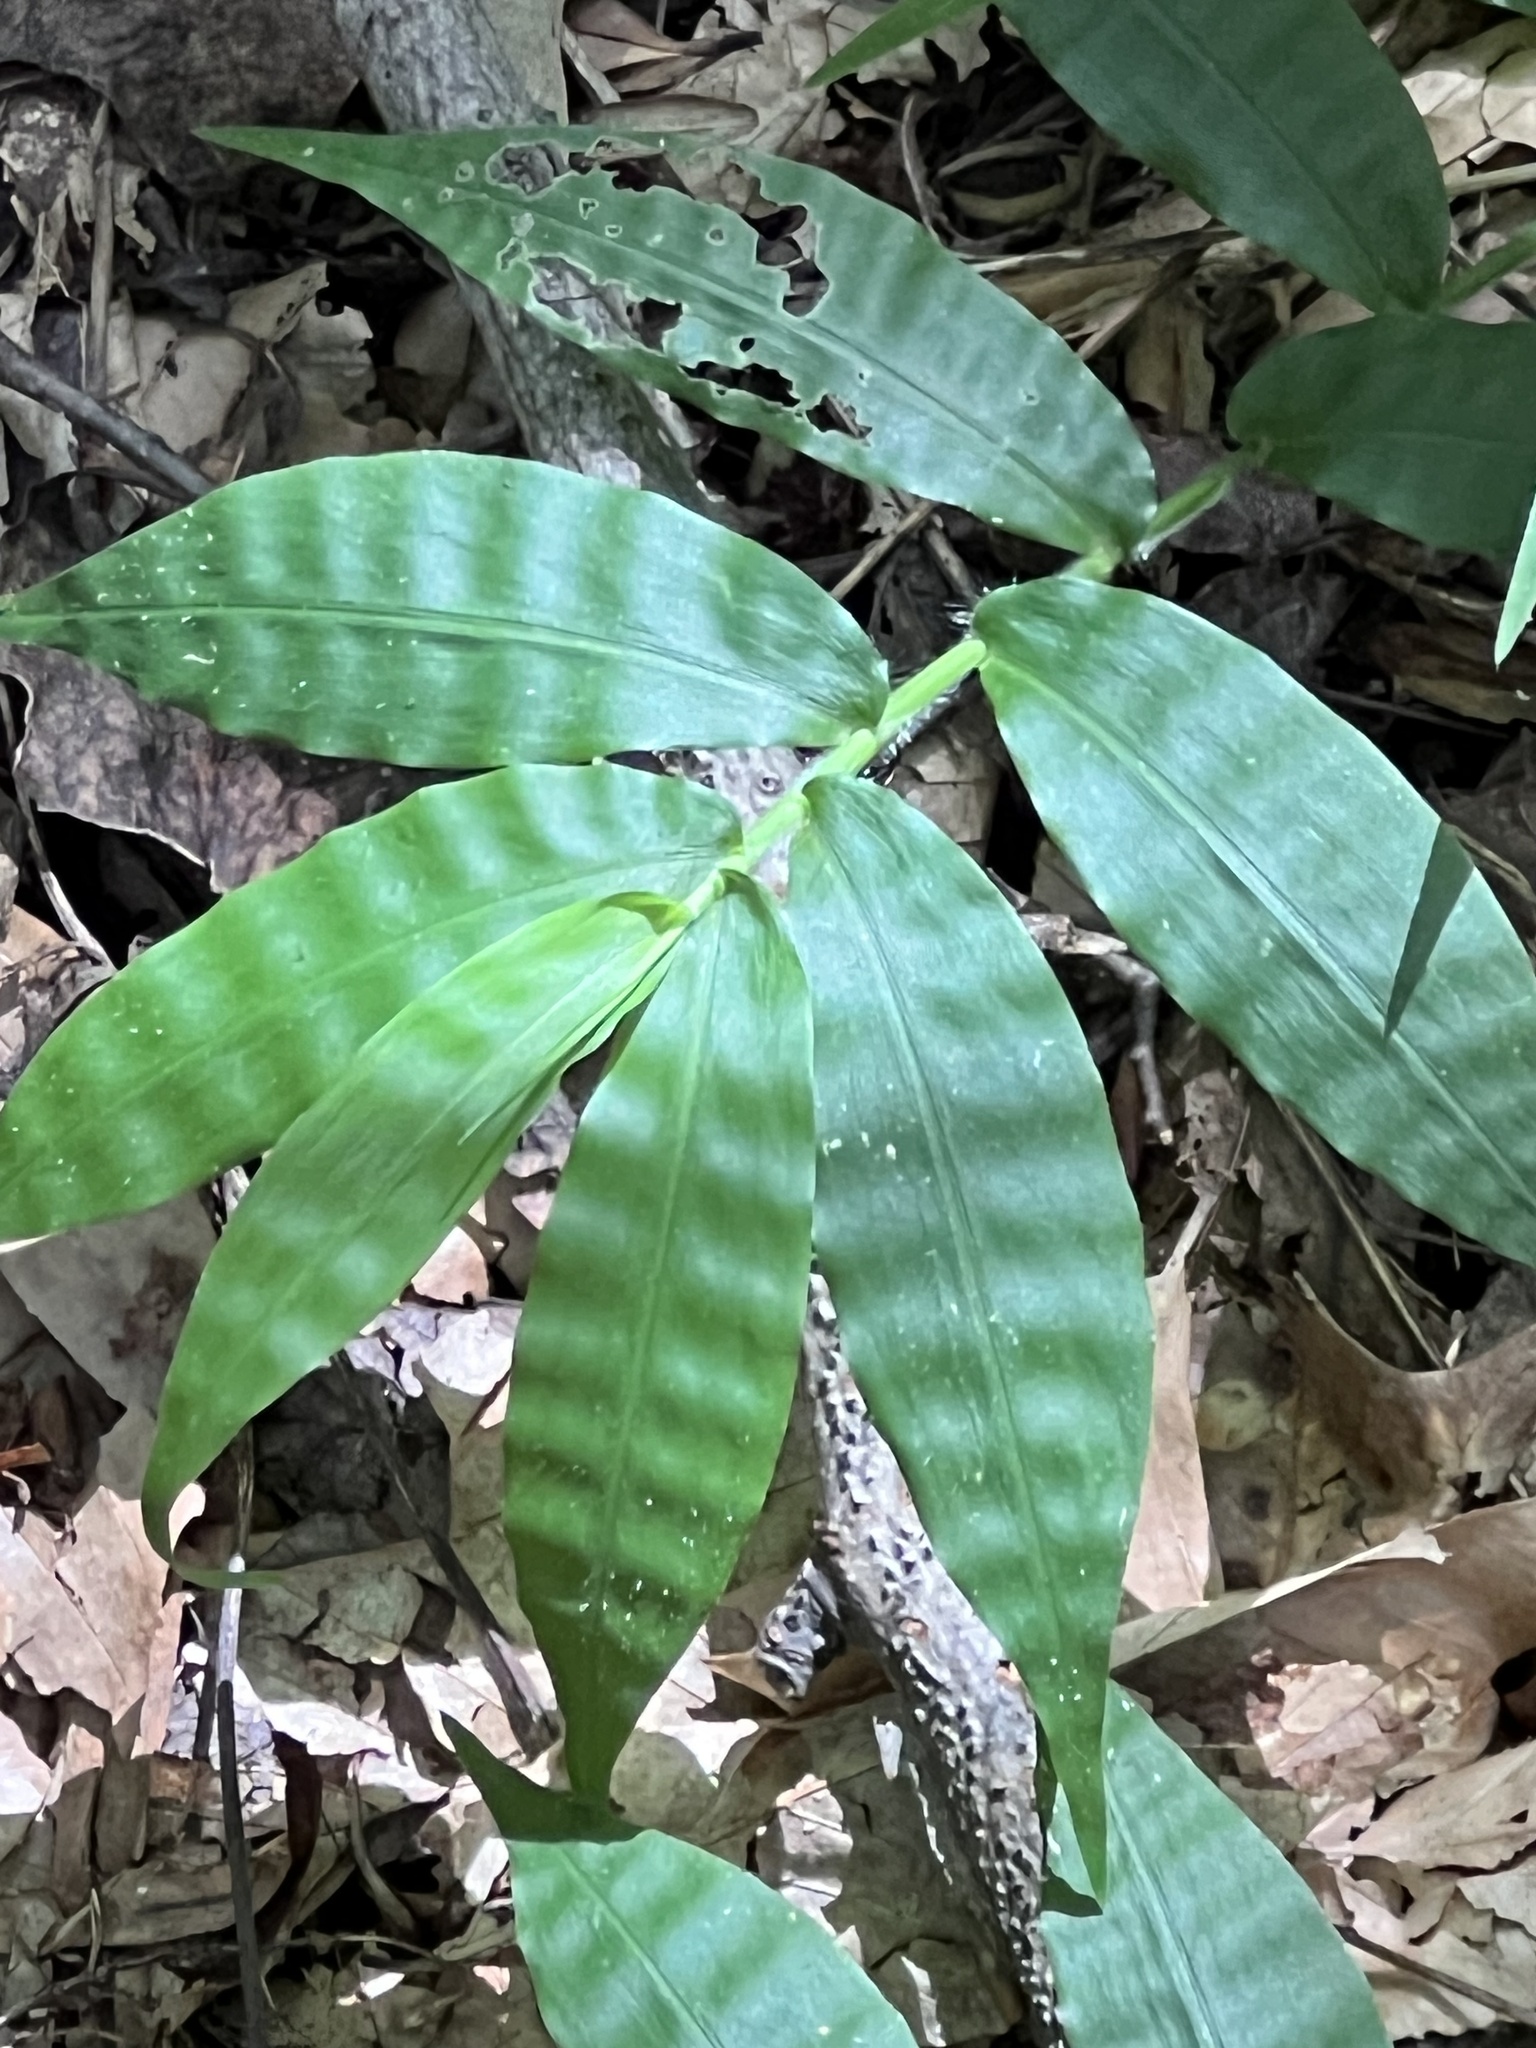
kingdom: Plantae
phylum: Tracheophyta
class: Liliopsida
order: Poales
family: Poaceae
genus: Oplismenus
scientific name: Oplismenus undulatifolius
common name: Wavyleaf basketgrass
